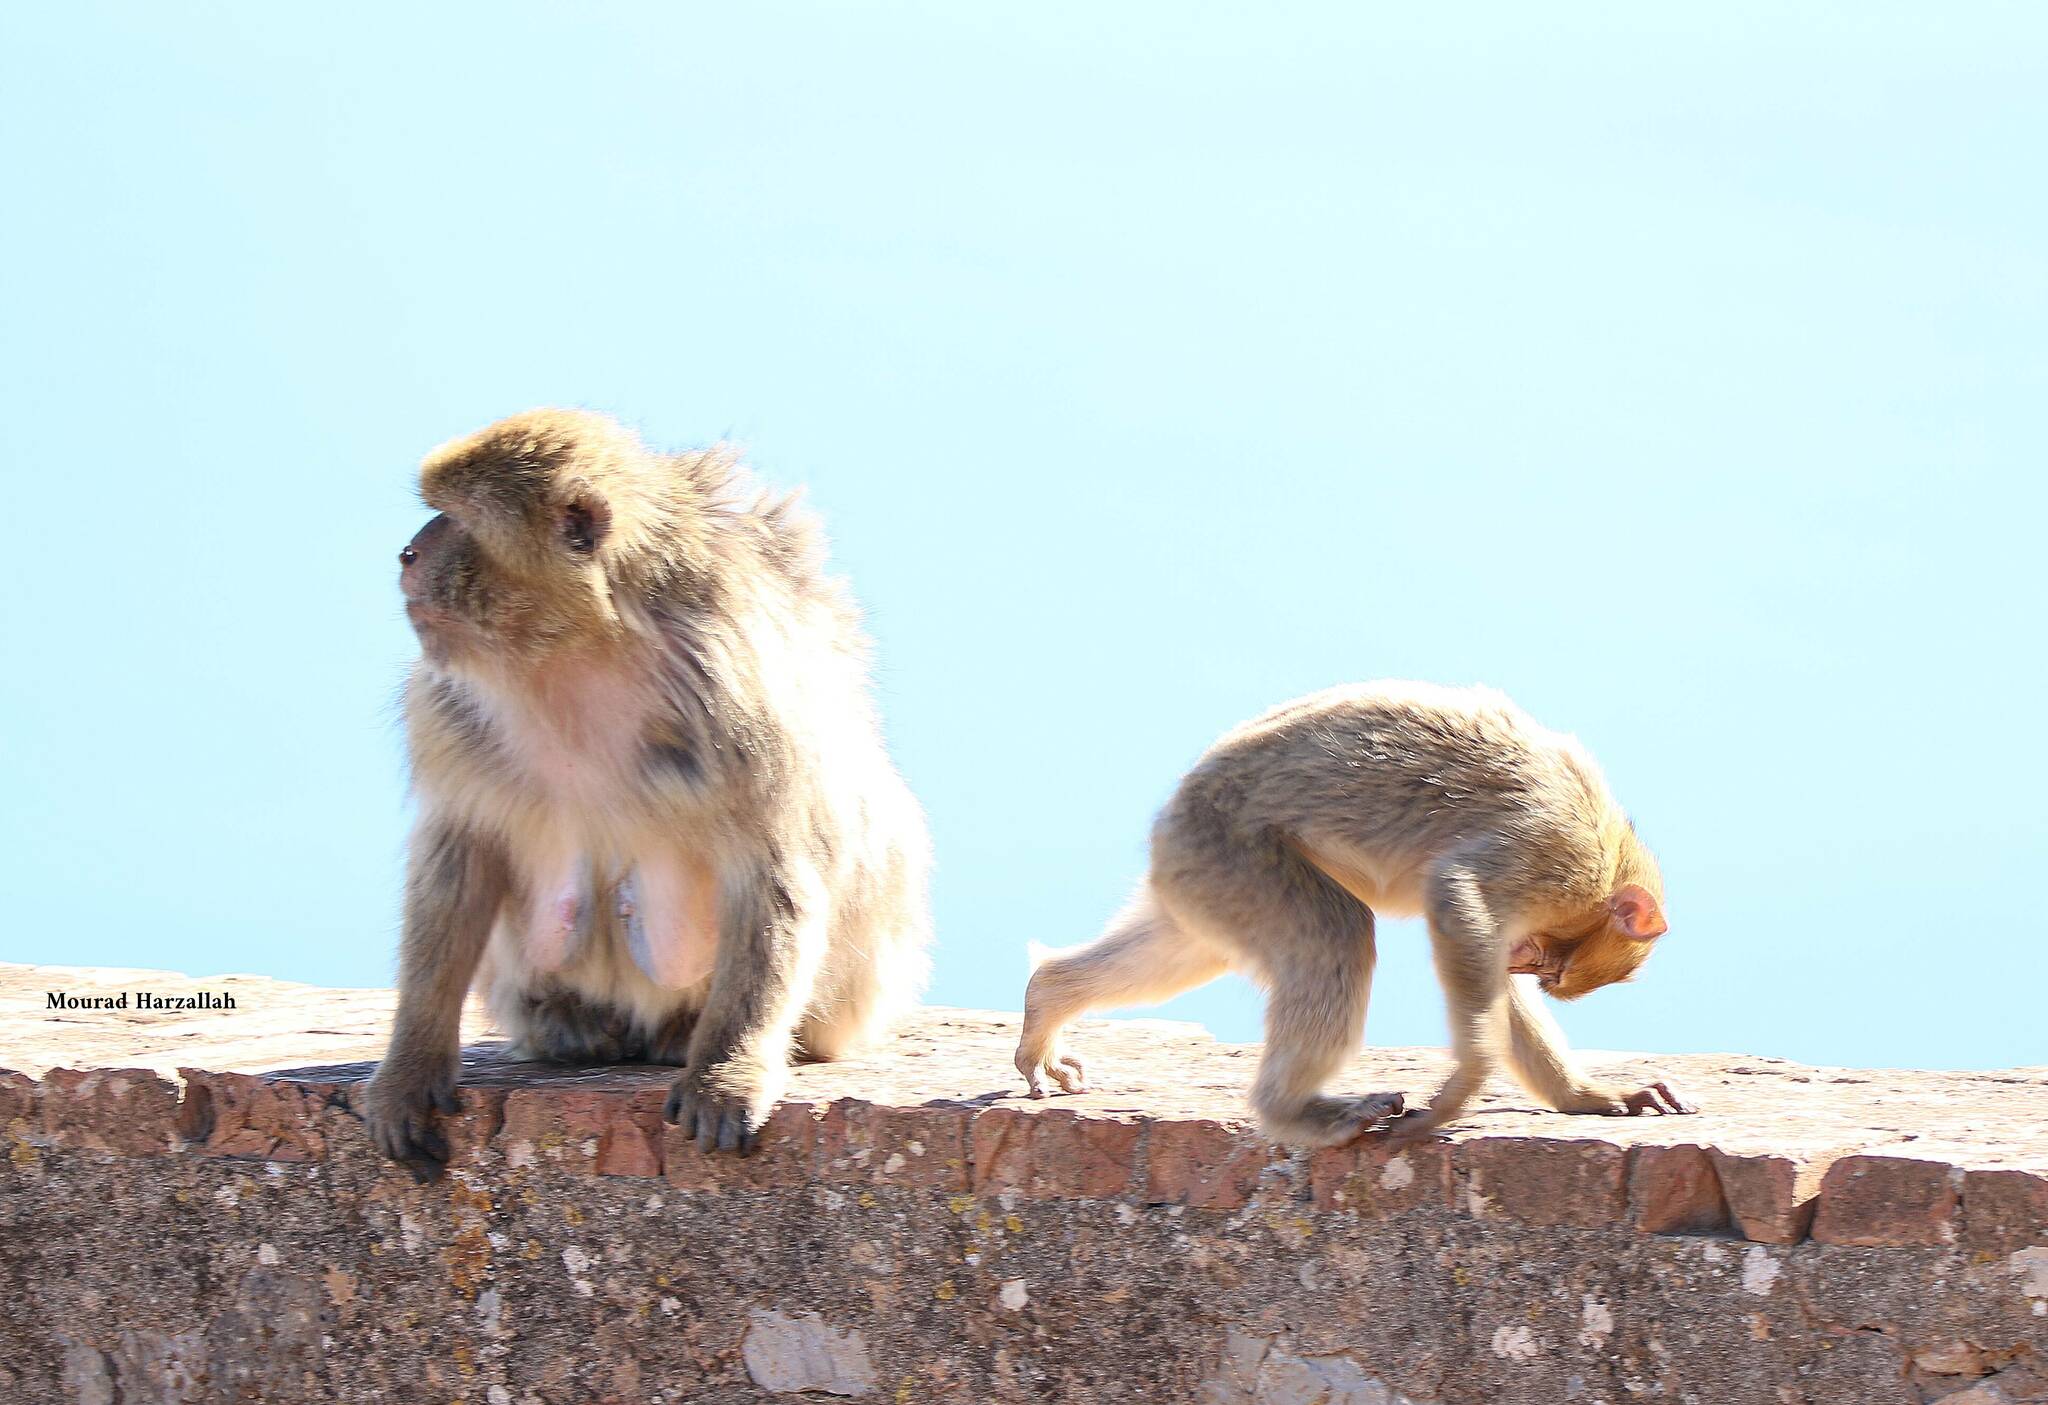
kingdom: Animalia
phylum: Chordata
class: Mammalia
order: Primates
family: Cercopithecidae
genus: Macaca
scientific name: Macaca sylvanus
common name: Barbary macaque
